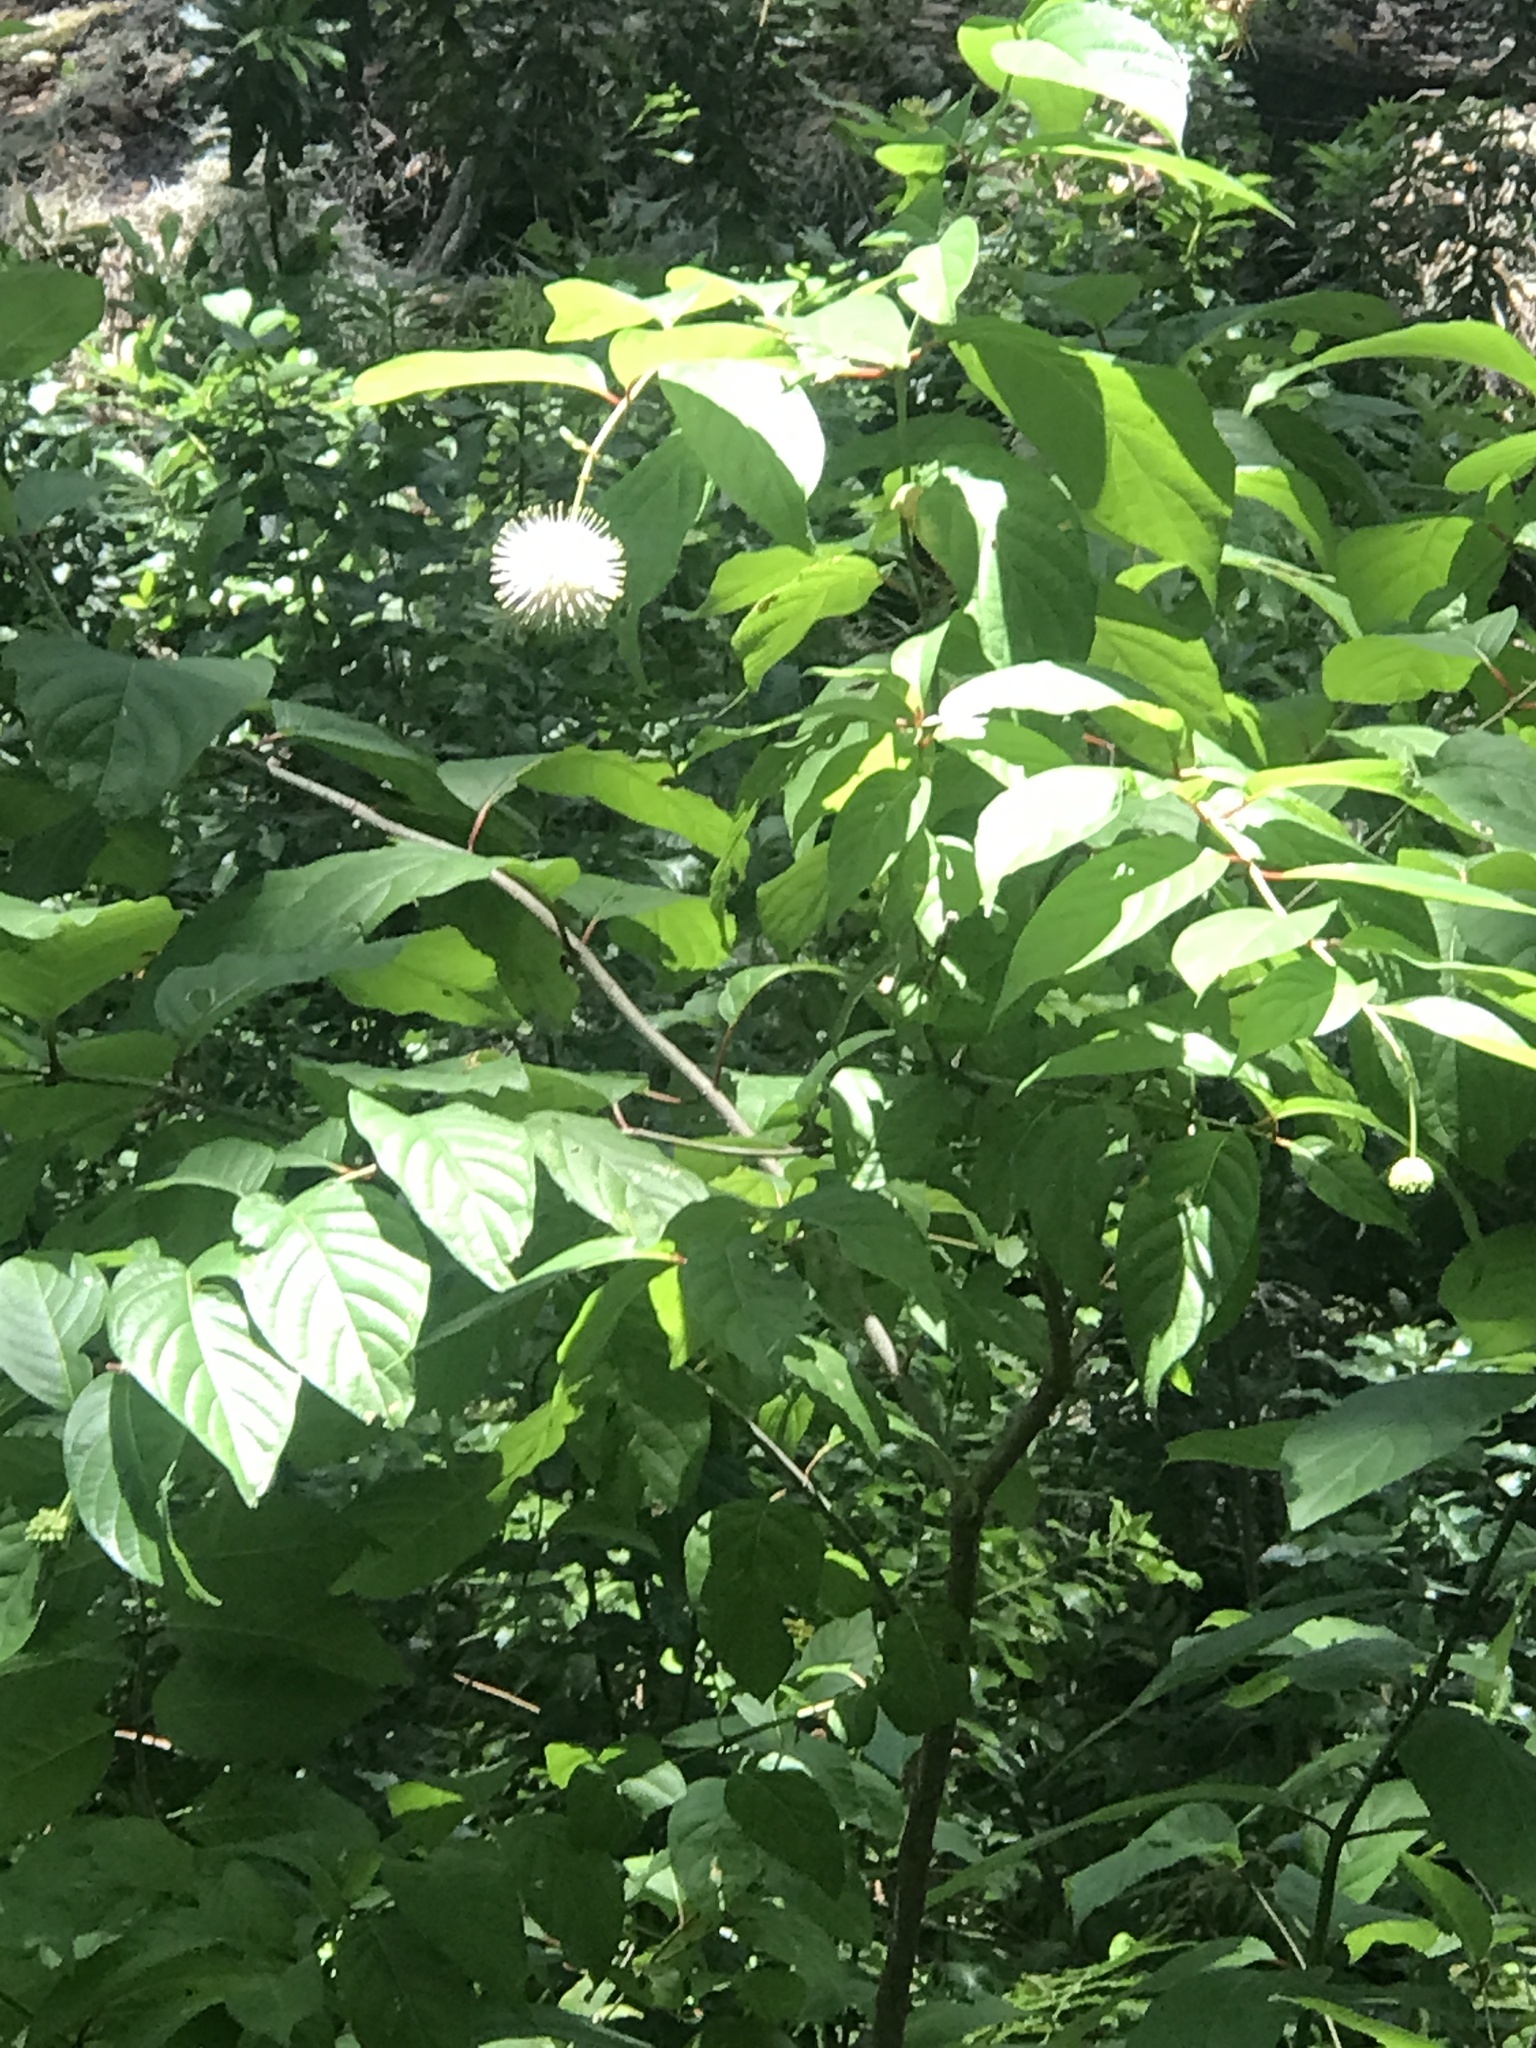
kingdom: Plantae
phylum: Tracheophyta
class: Magnoliopsida
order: Gentianales
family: Rubiaceae
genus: Cephalanthus
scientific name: Cephalanthus occidentalis
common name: Button-willow
